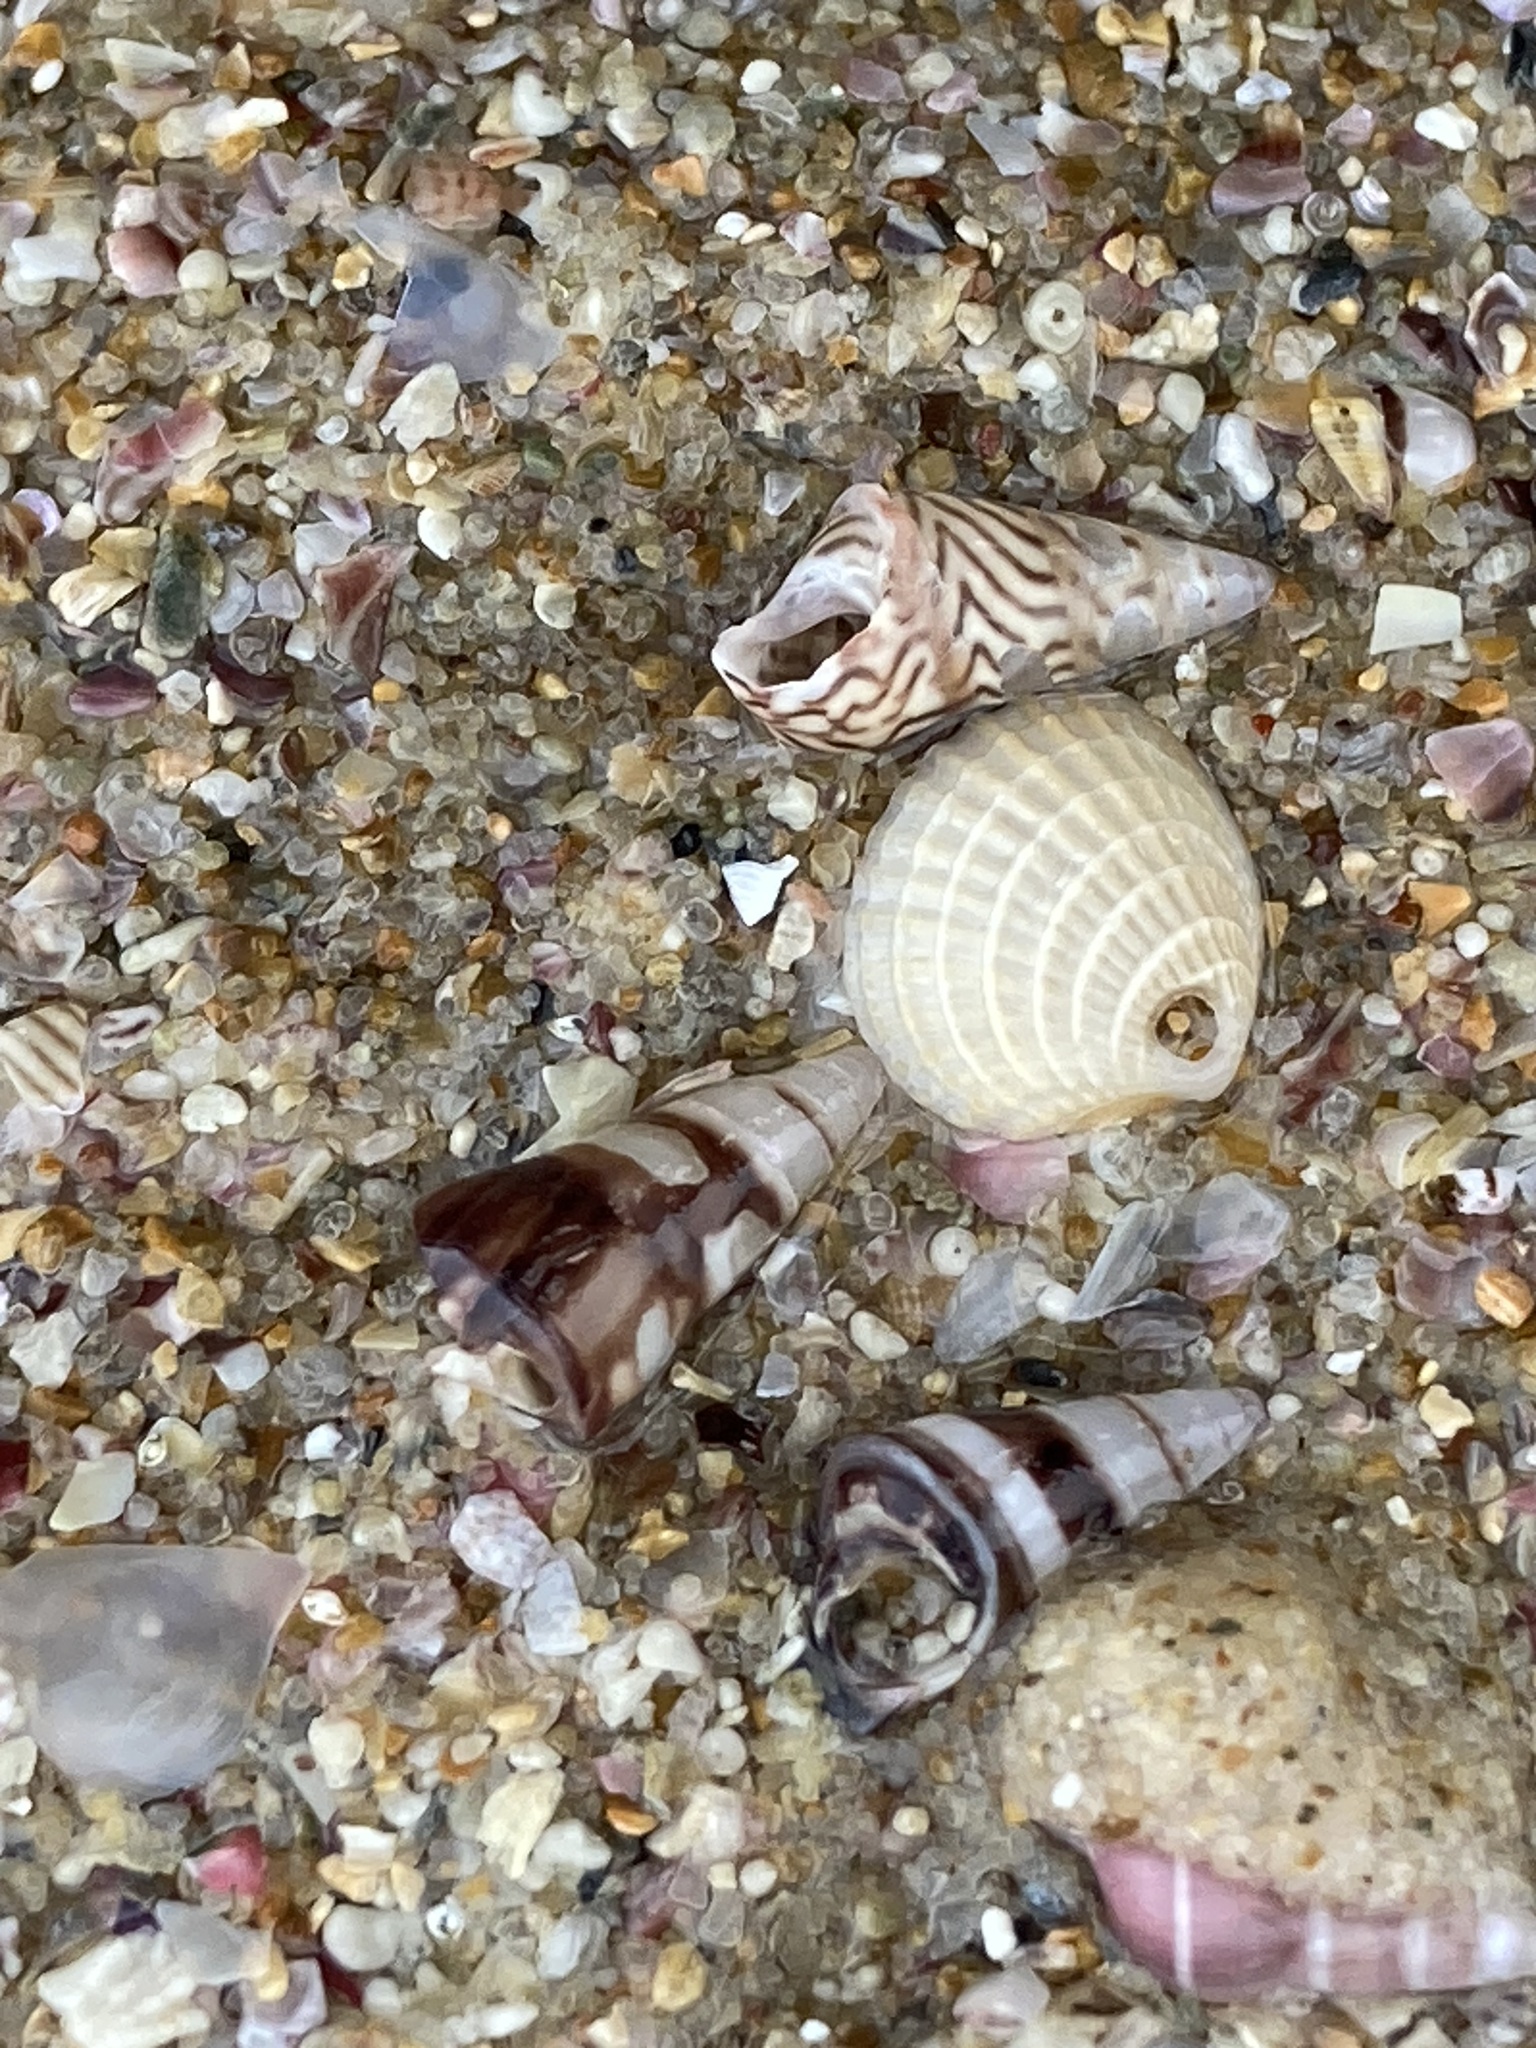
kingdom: Animalia
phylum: Mollusca
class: Bivalvia
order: Venerida
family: Veneridae
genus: Timoclea
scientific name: Timoclea scabra
